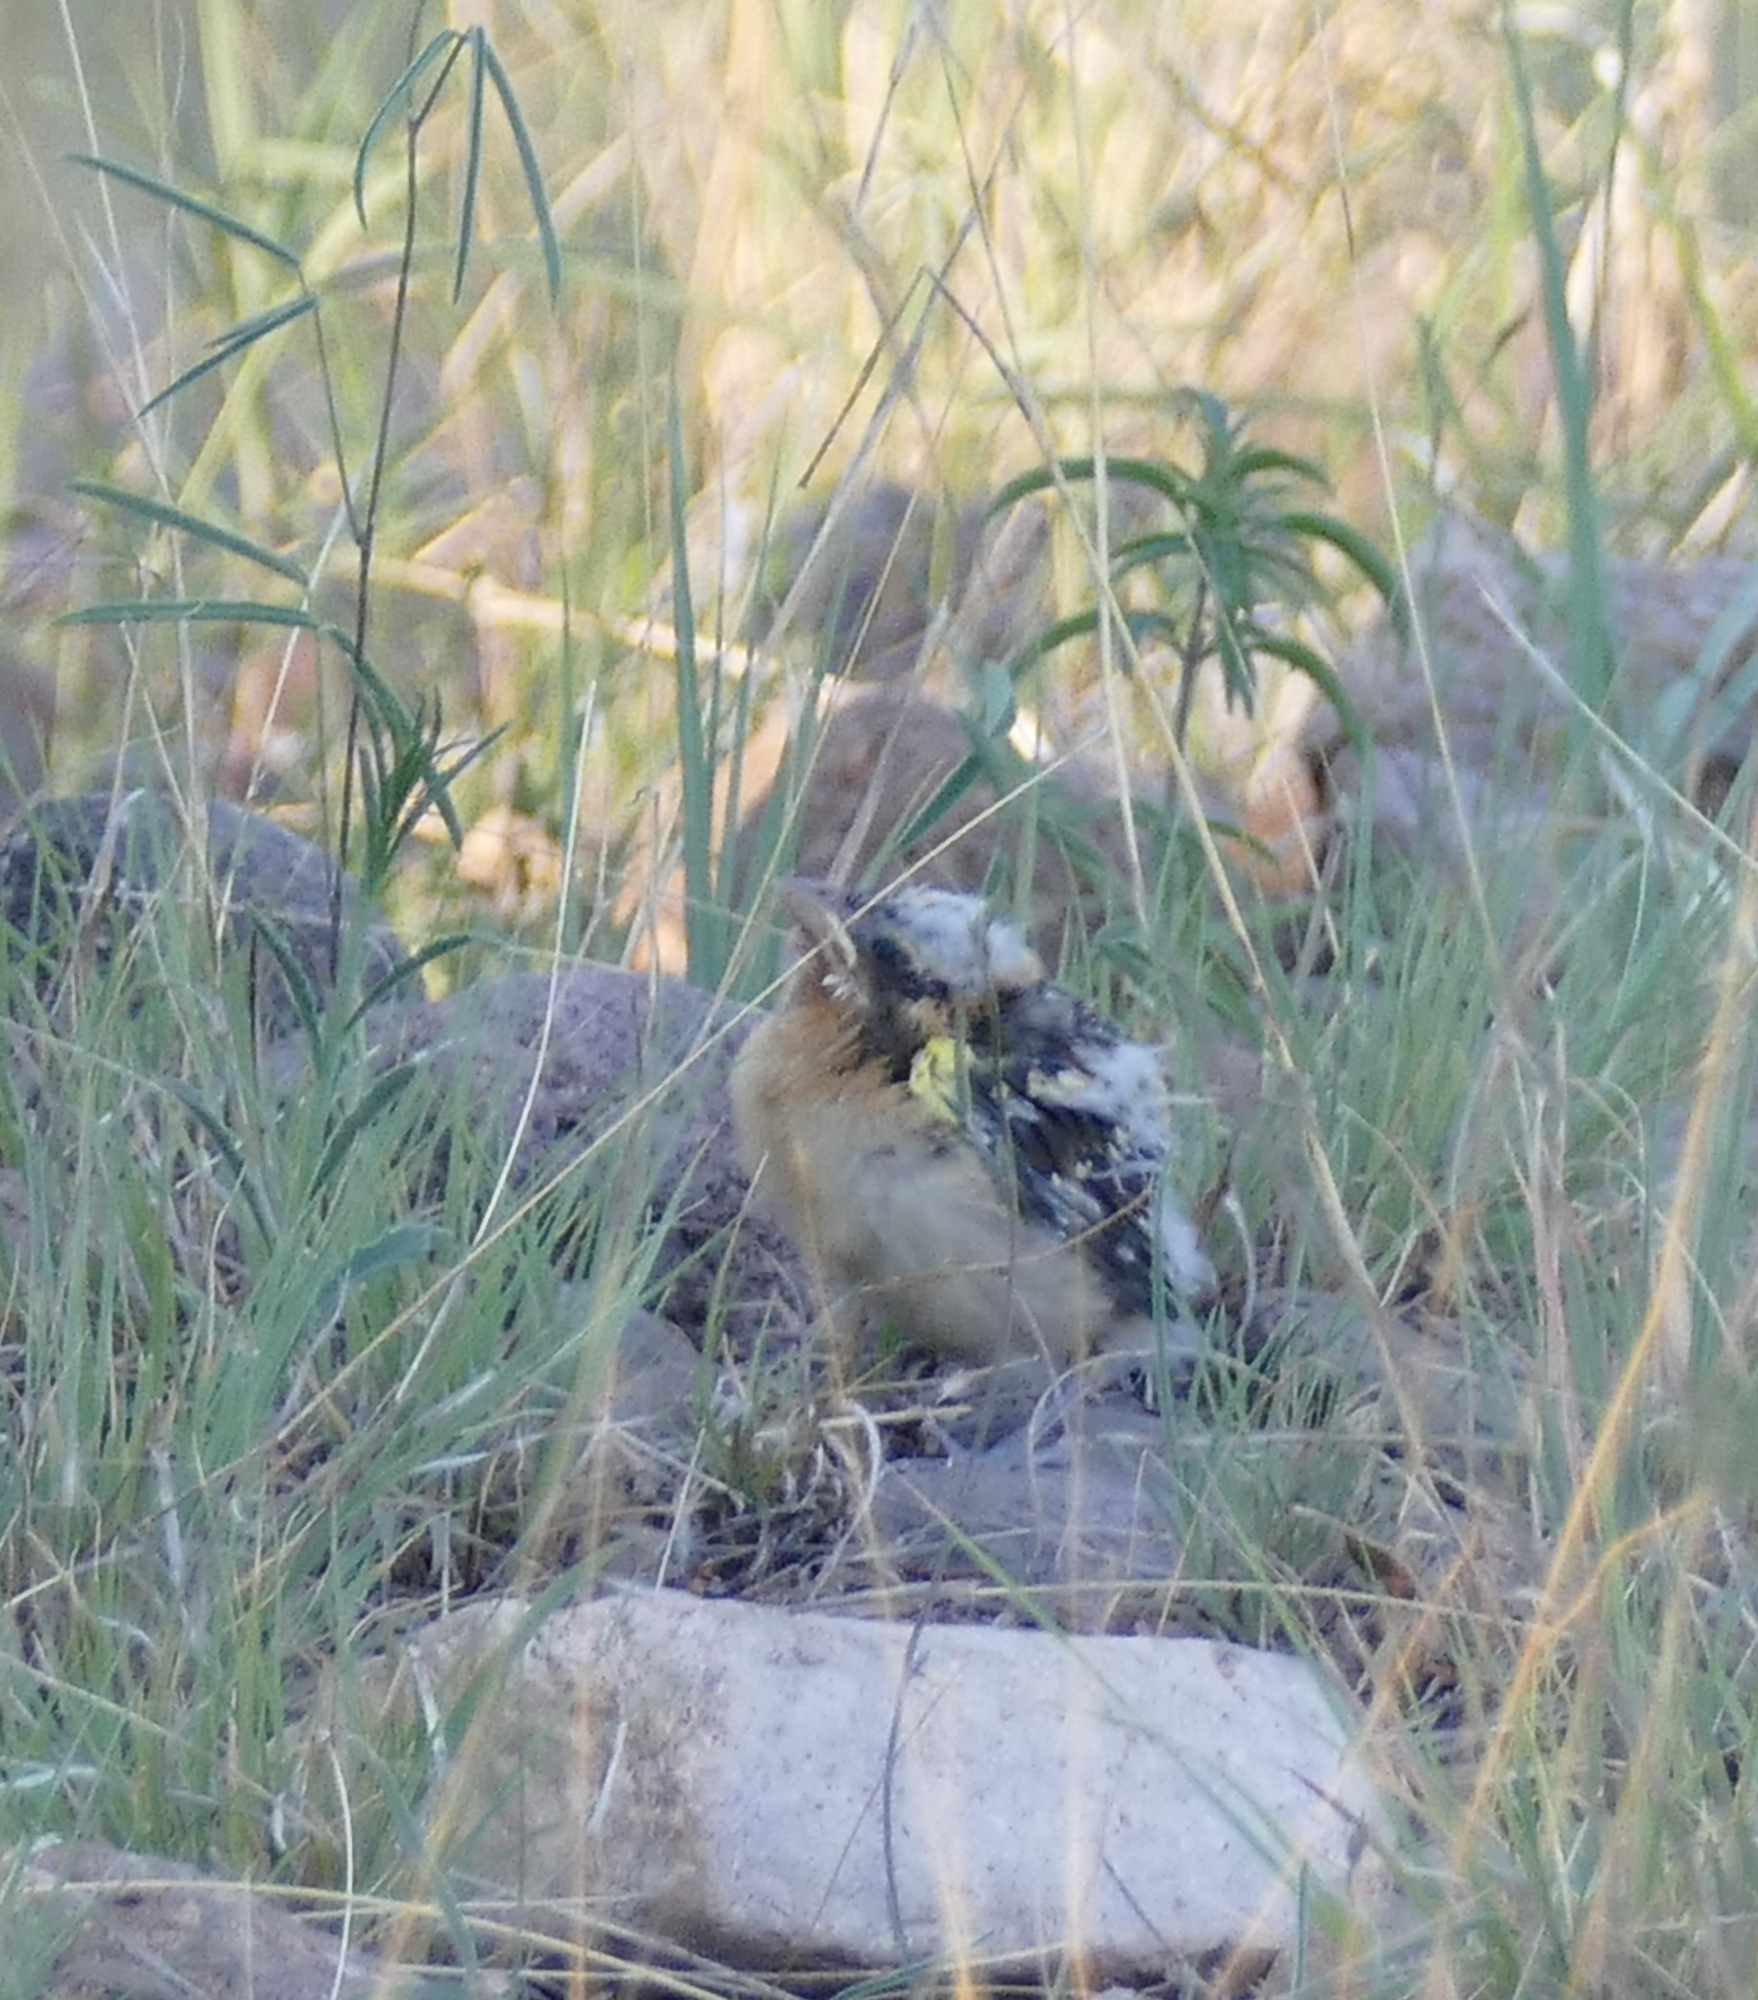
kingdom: Animalia
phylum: Chordata
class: Aves
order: Passeriformes
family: Cardinalidae
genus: Pheucticus
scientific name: Pheucticus melanocephalus
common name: Black-headed grosbeak
